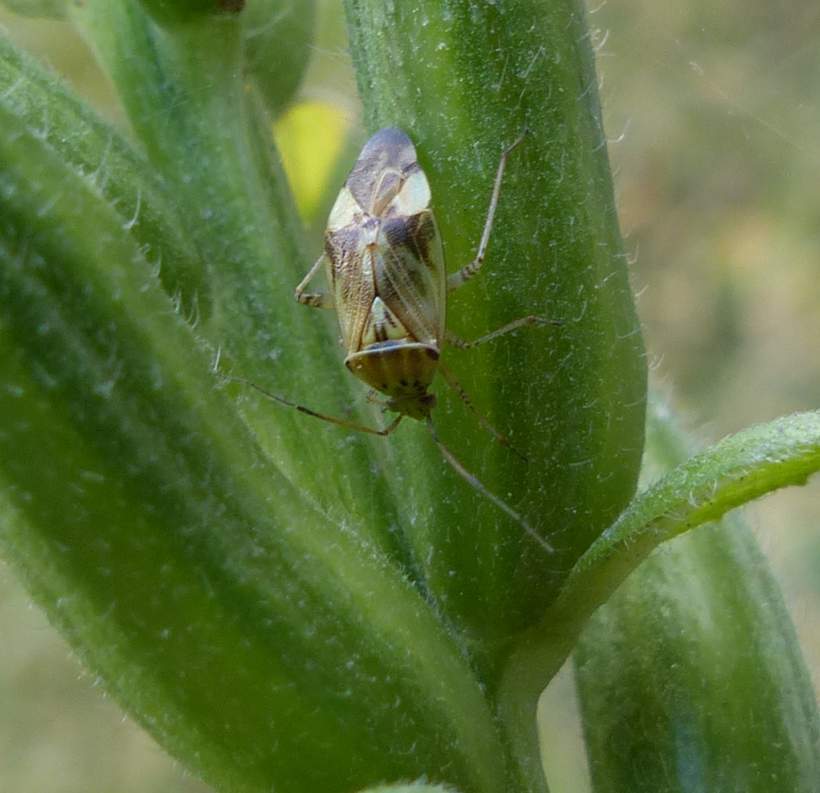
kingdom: Animalia
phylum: Arthropoda
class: Insecta
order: Hemiptera
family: Miridae
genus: Lygus
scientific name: Lygus lineolaris
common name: North american tarnished plant bug
